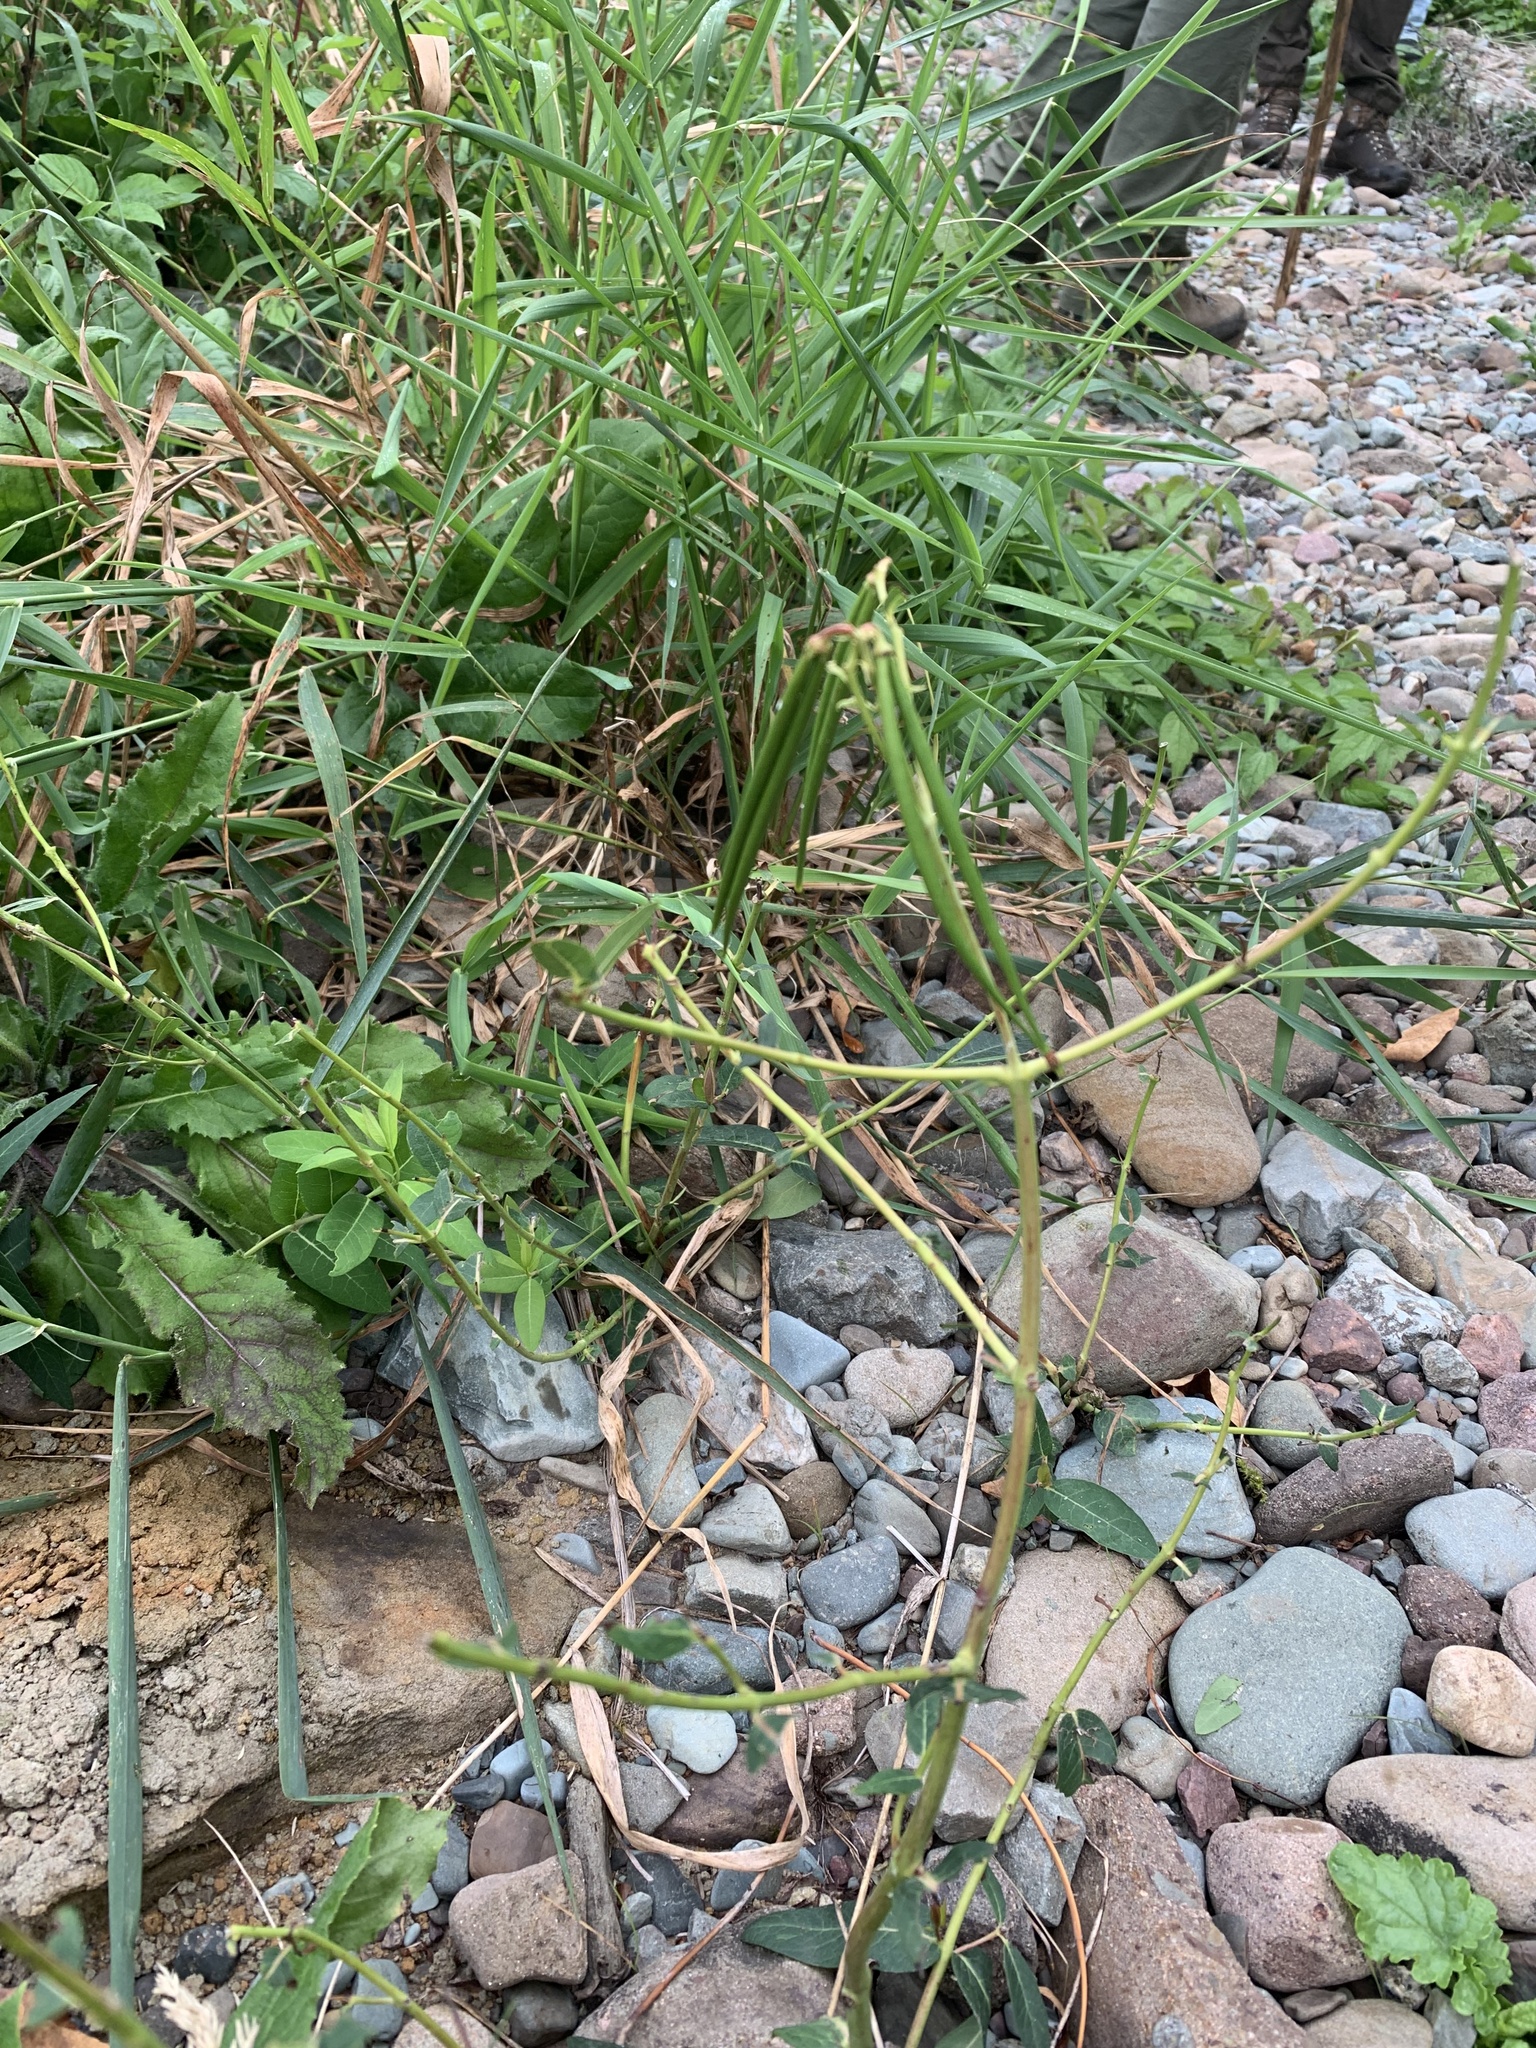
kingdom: Plantae
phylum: Tracheophyta
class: Magnoliopsida
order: Gentianales
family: Apocynaceae
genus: Apocynum
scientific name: Apocynum cannabinum
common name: Hemp dogbane
